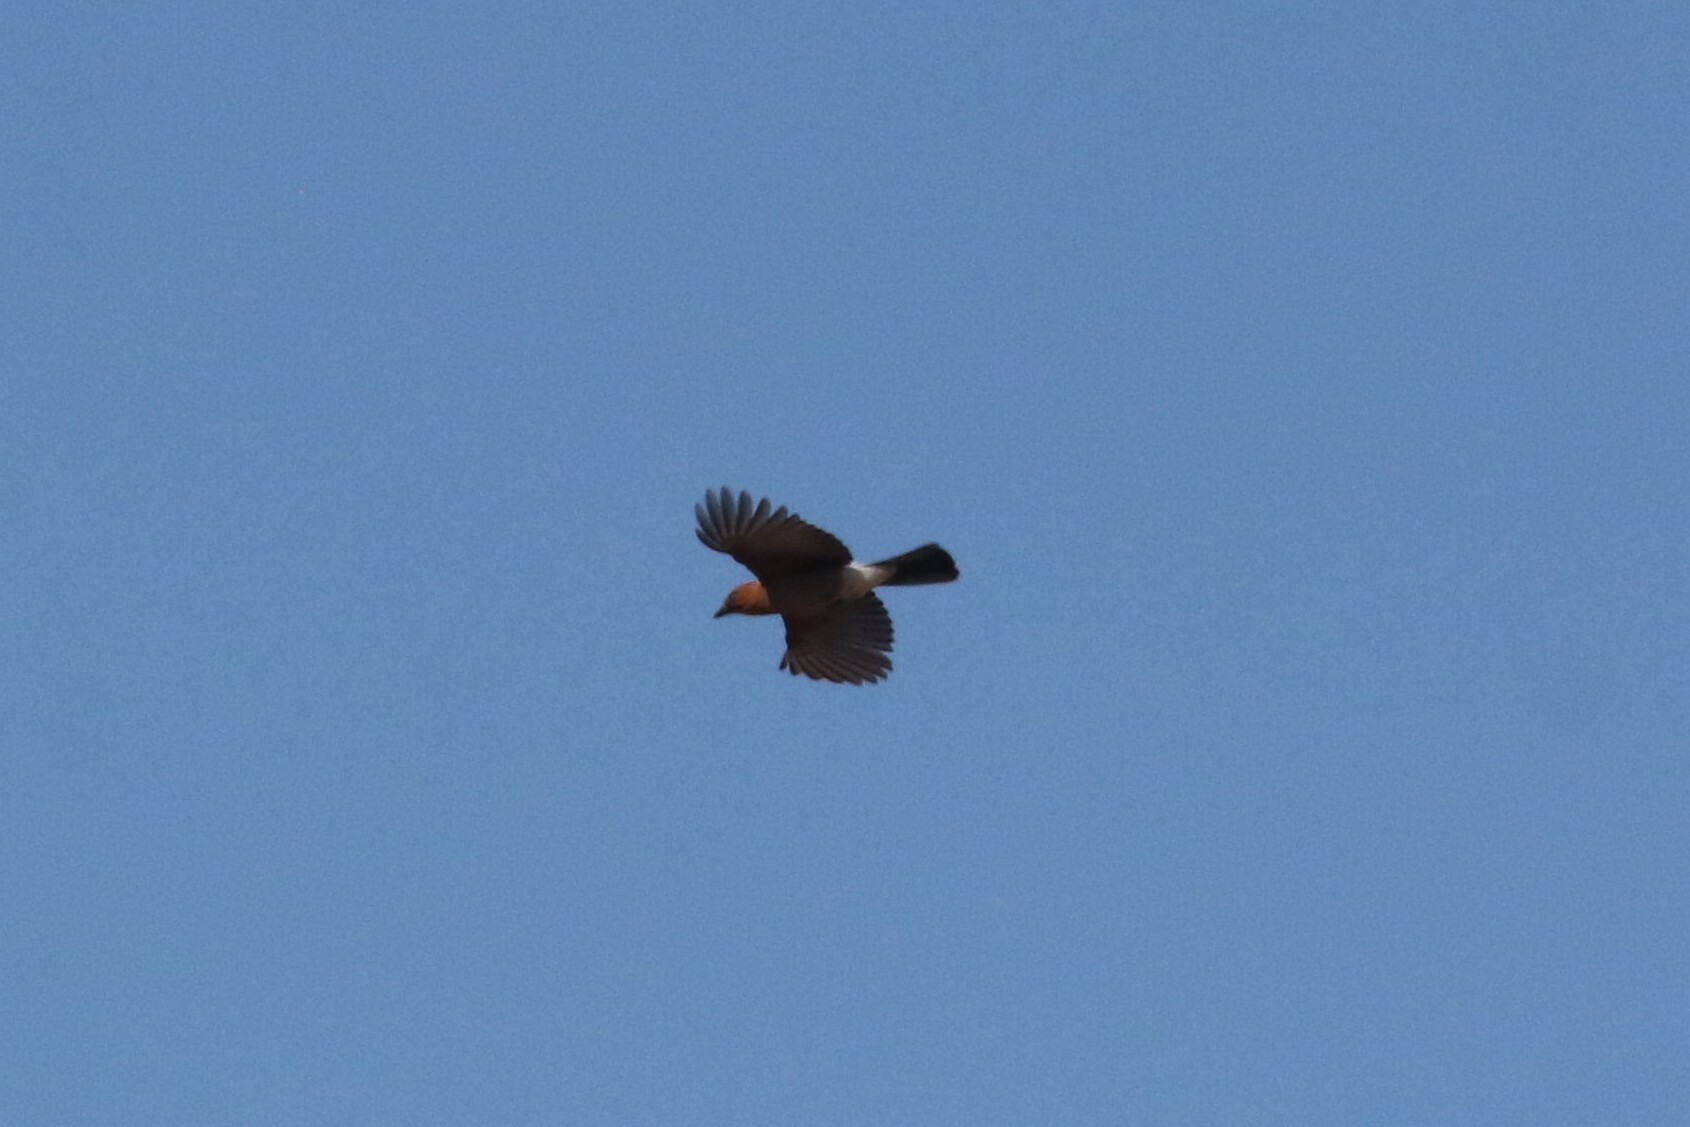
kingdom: Animalia
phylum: Chordata
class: Aves
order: Passeriformes
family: Corvidae
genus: Garrulus
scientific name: Garrulus glandarius
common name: Eurasian jay
